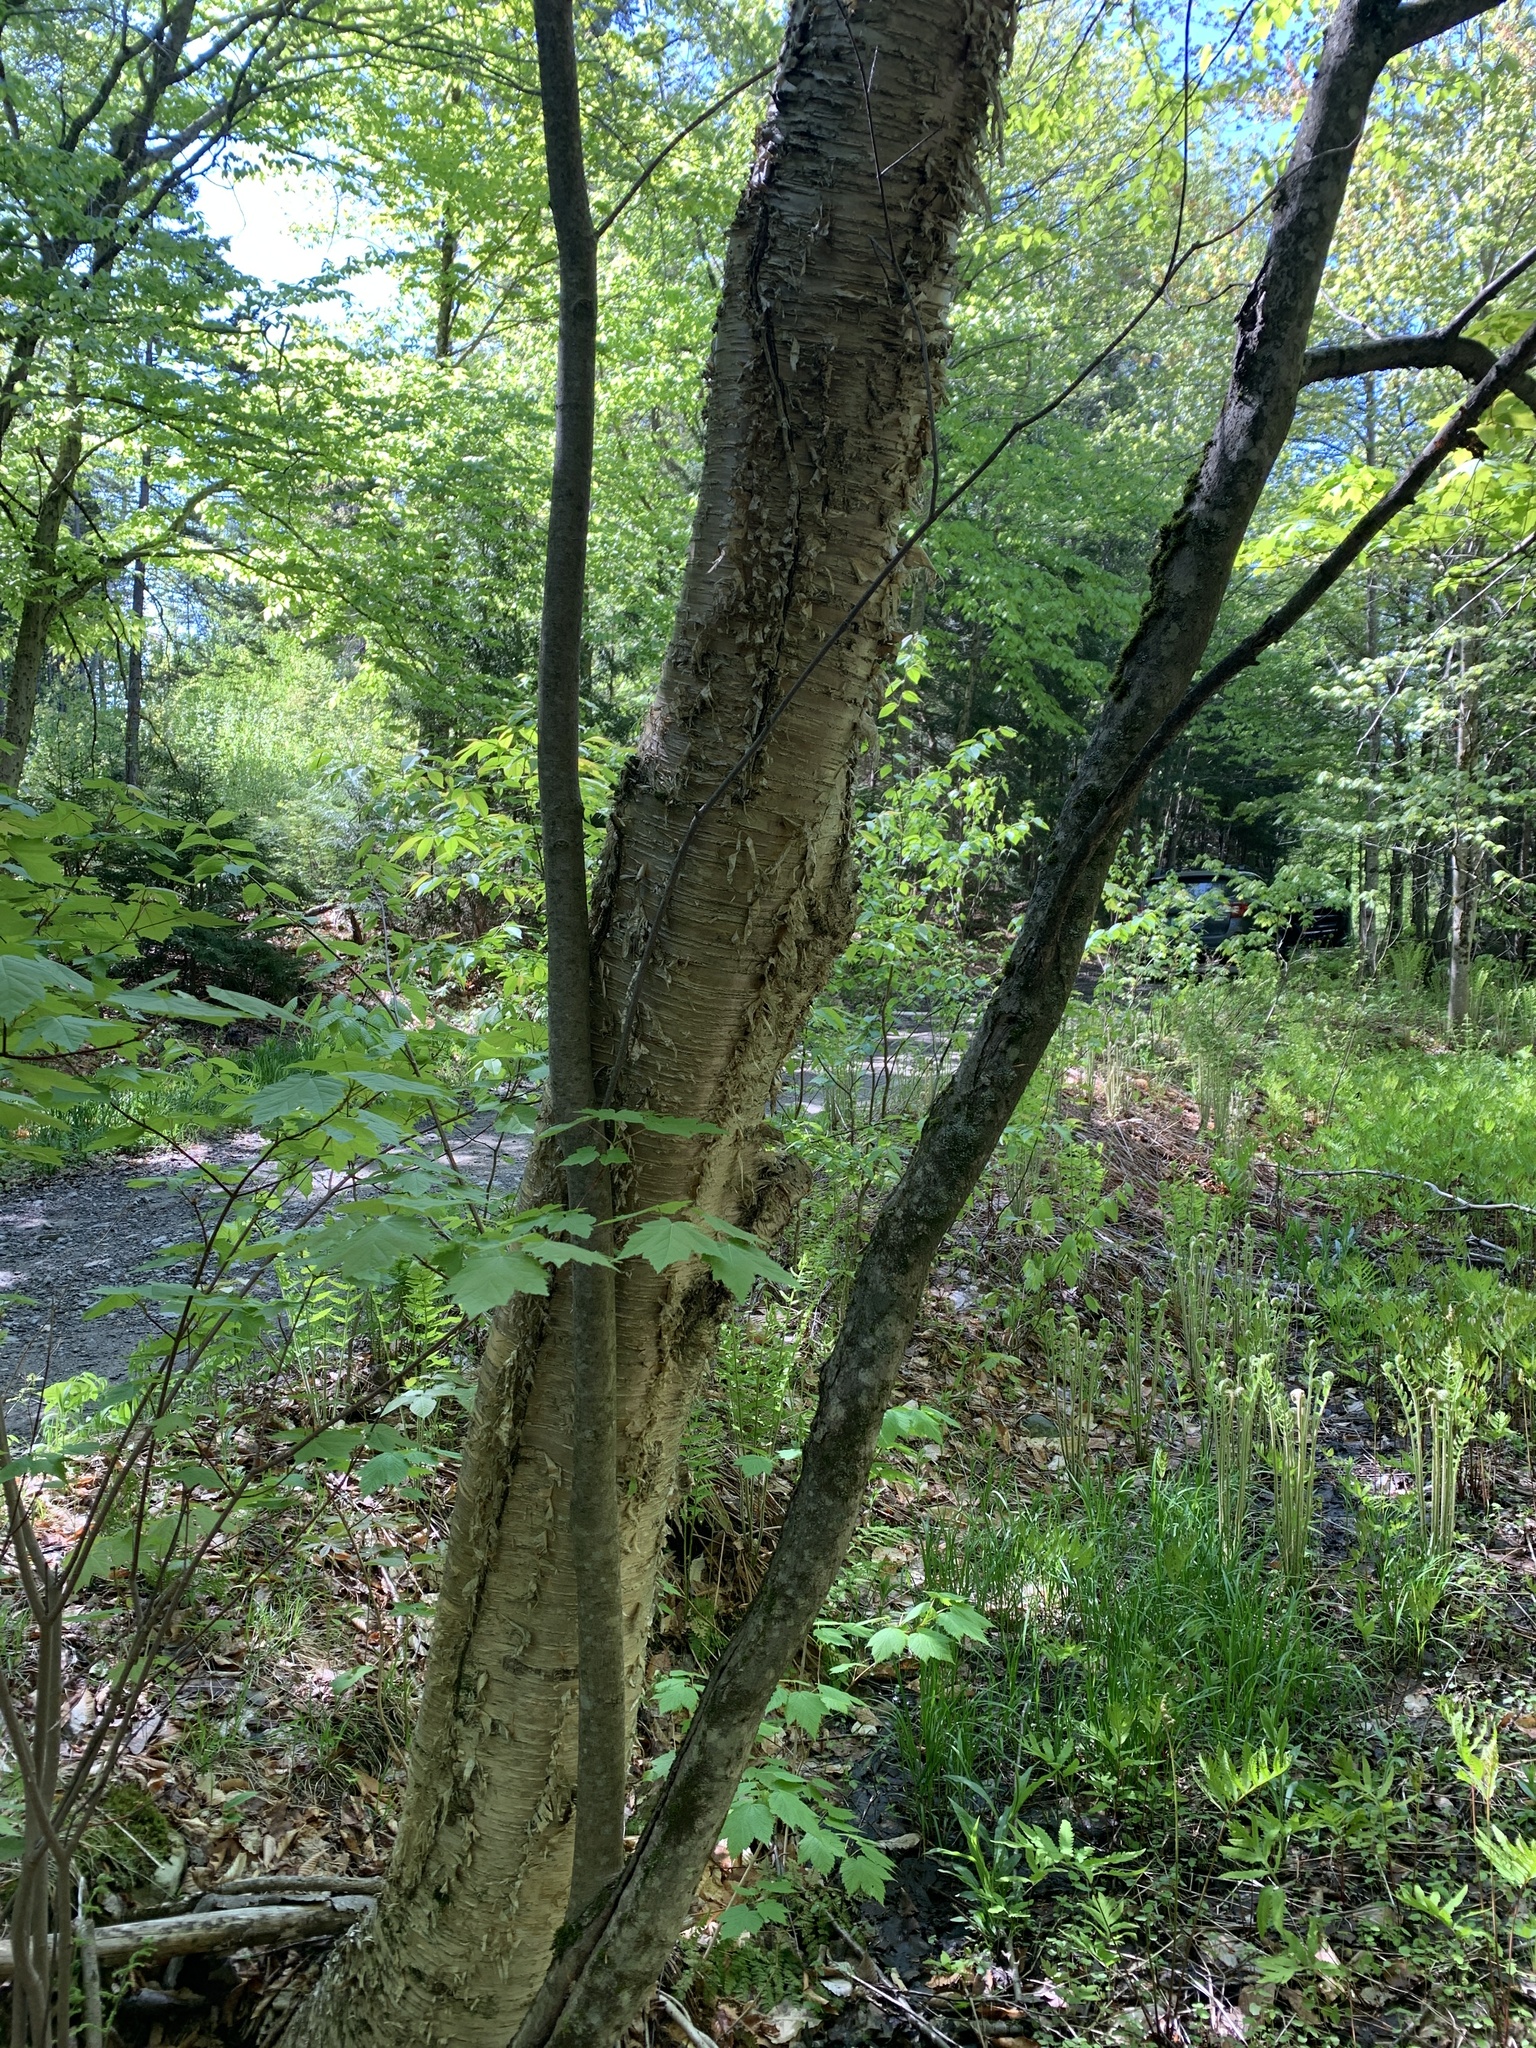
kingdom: Plantae
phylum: Tracheophyta
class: Magnoliopsida
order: Fagales
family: Betulaceae
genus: Betula
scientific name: Betula alleghaniensis
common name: Yellow birch
